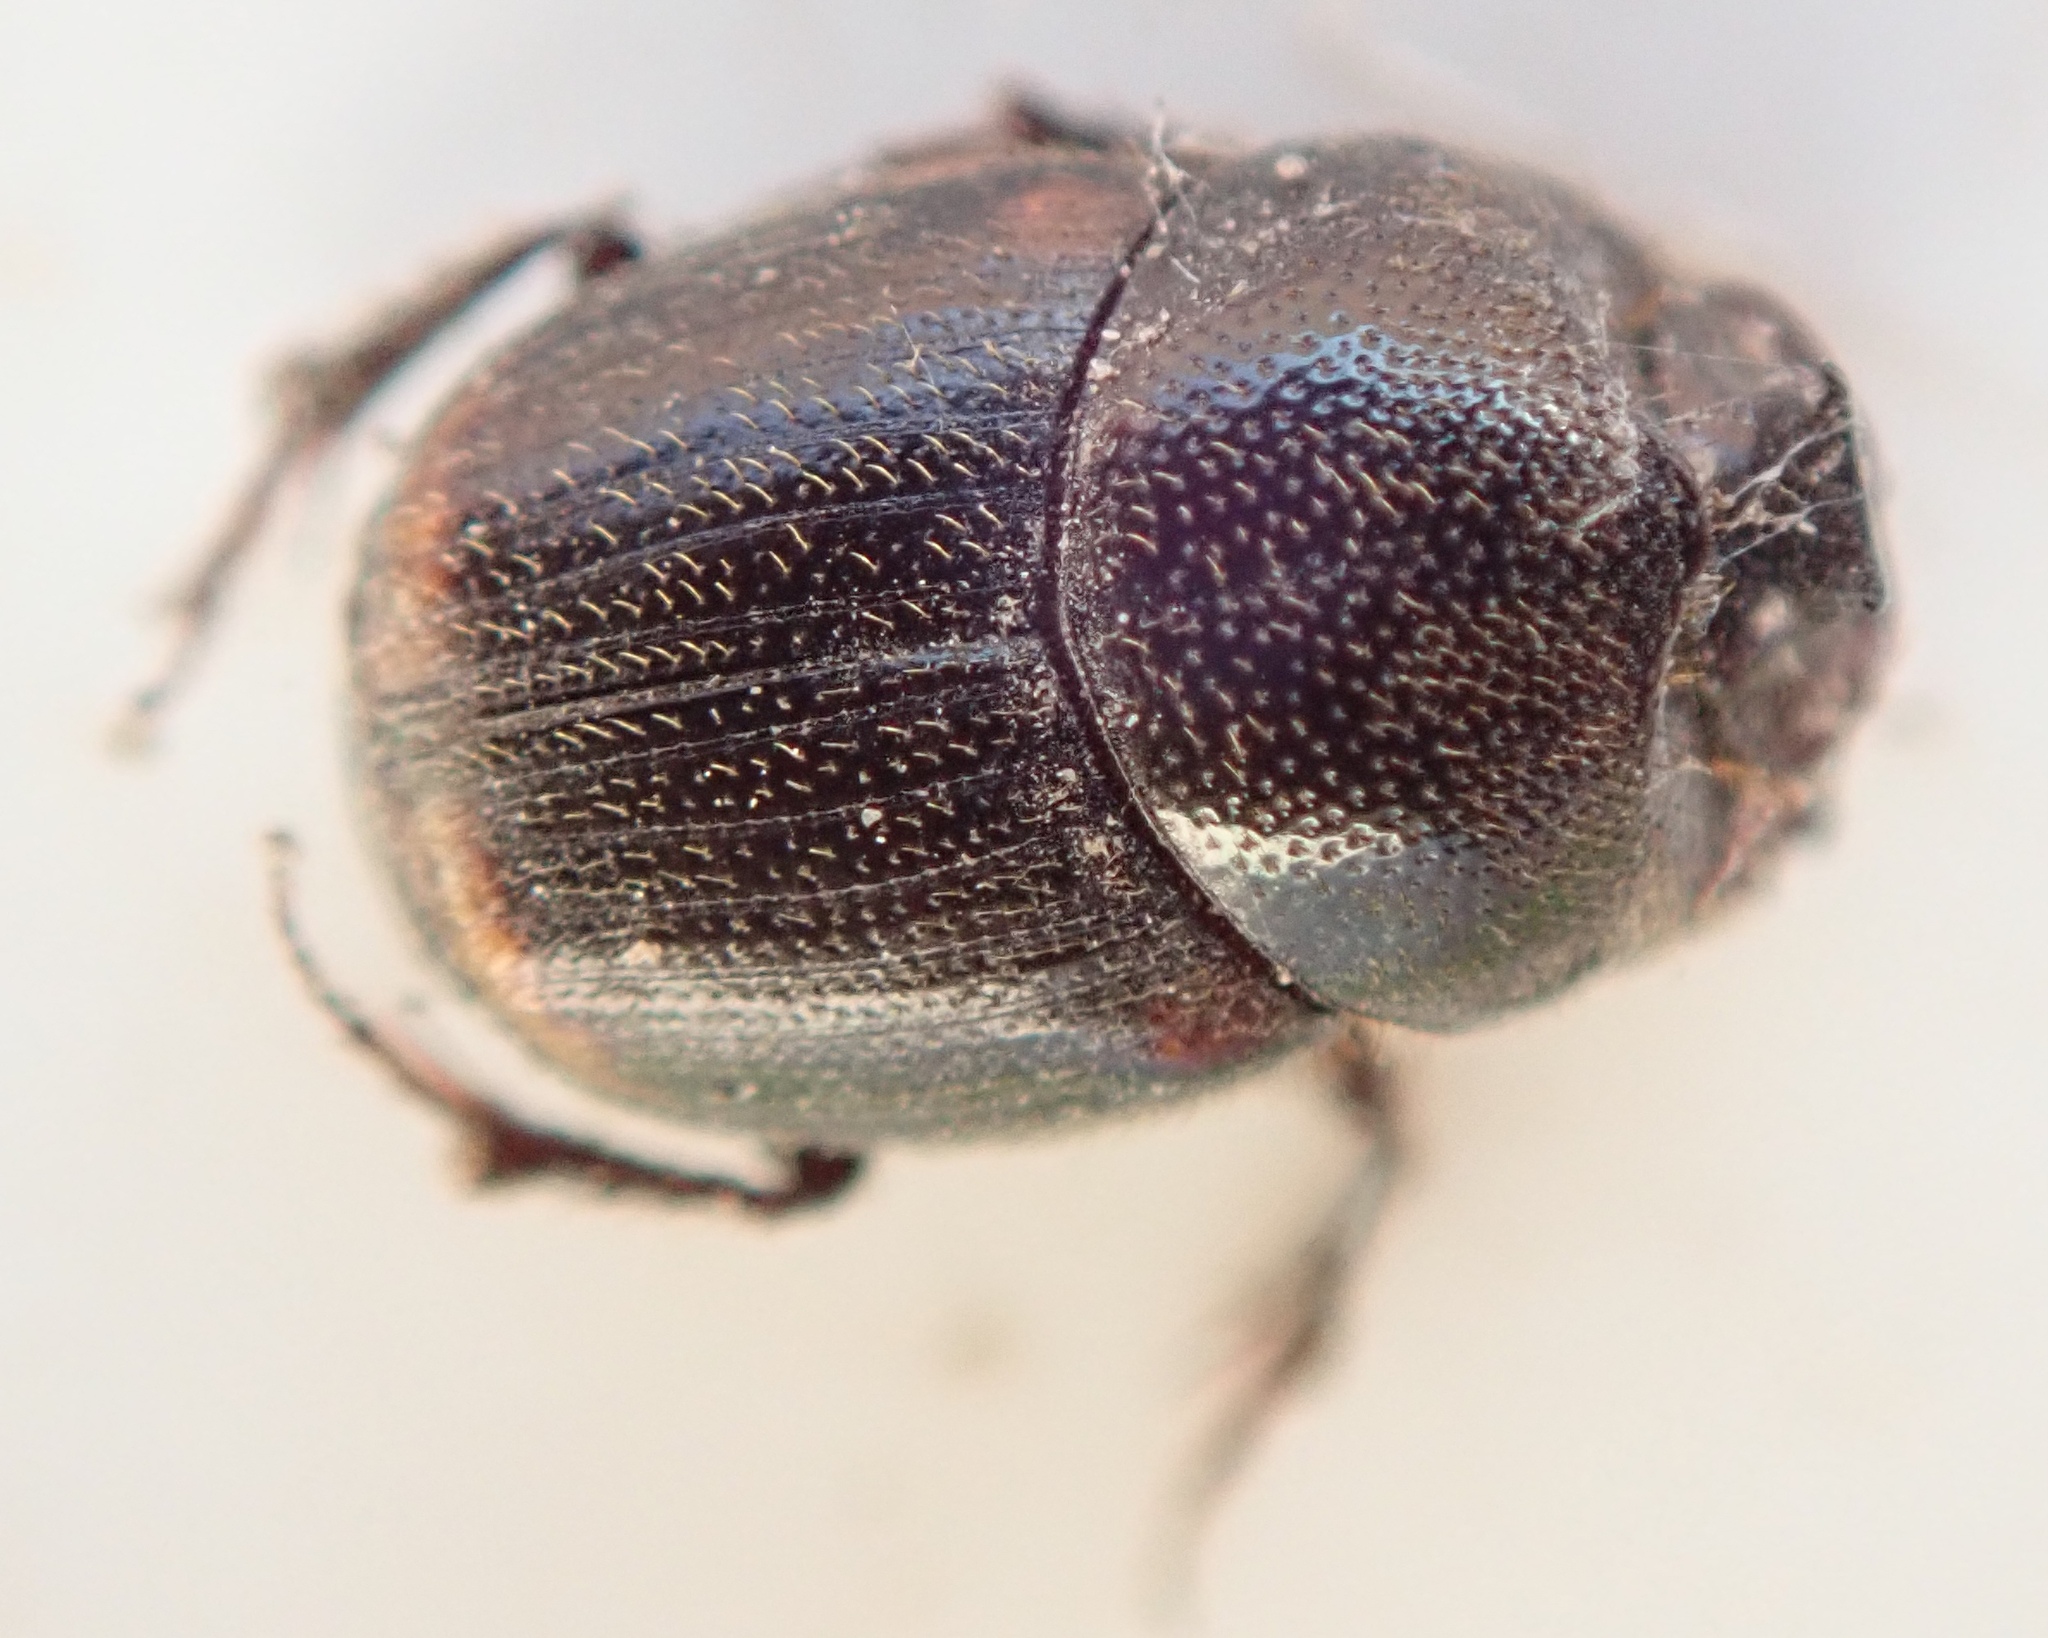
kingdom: Animalia
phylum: Arthropoda
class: Insecta
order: Coleoptera
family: Scarabaeidae
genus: Onthophagus
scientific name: Onthophagus quadrimaculatus
